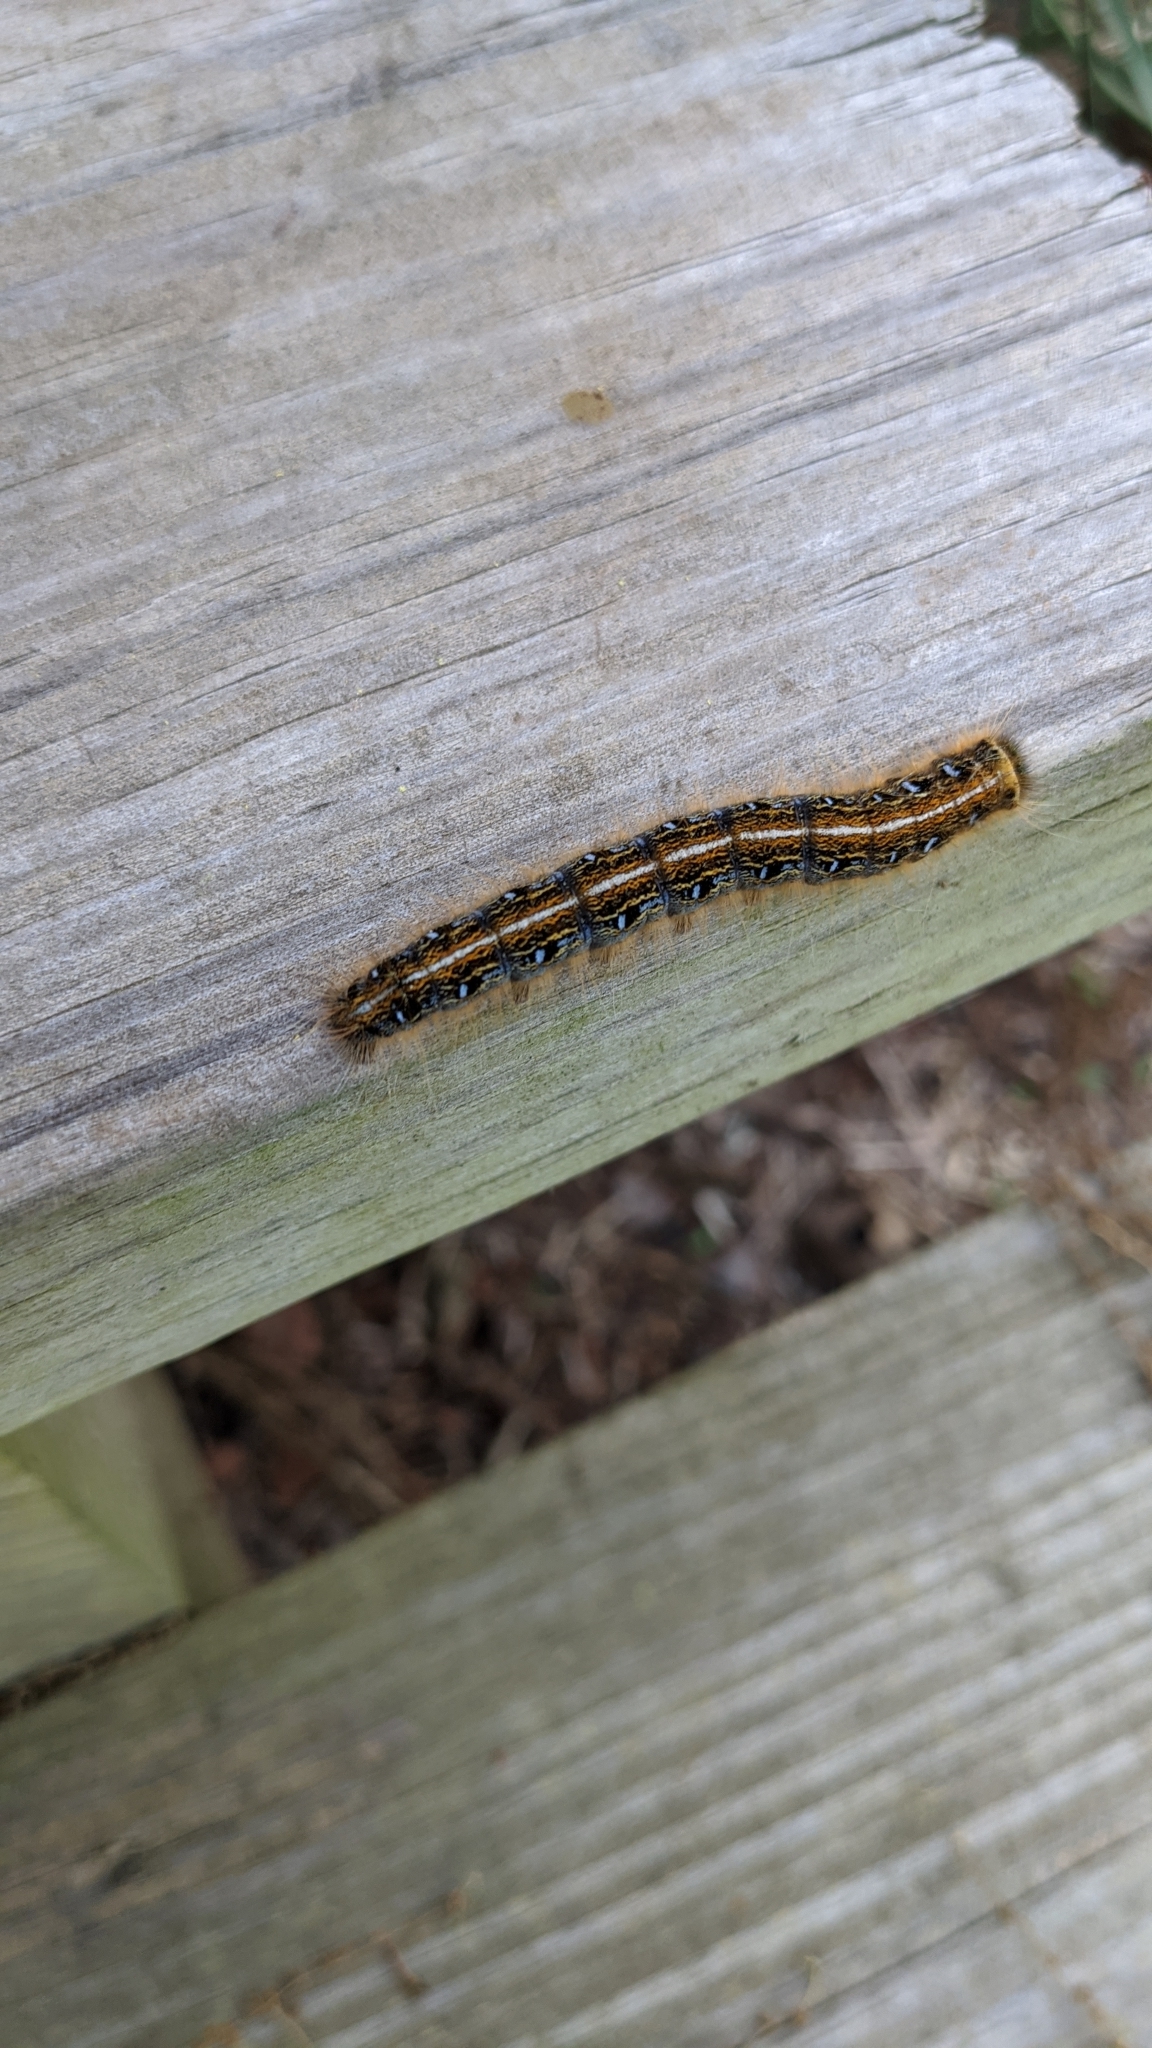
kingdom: Animalia
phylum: Arthropoda
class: Insecta
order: Lepidoptera
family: Lasiocampidae
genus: Malacosoma
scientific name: Malacosoma americana
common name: Eastern tent caterpillar moth
